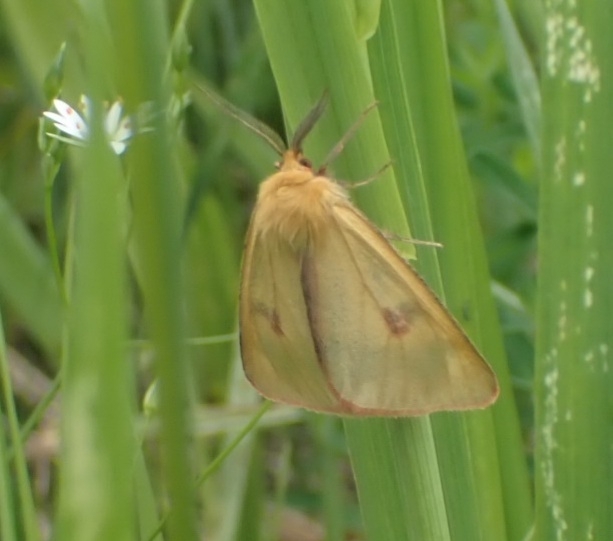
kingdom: Animalia
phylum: Arthropoda
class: Insecta
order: Lepidoptera
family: Erebidae
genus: Diacrisia
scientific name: Diacrisia sannio
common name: Clouded buff
